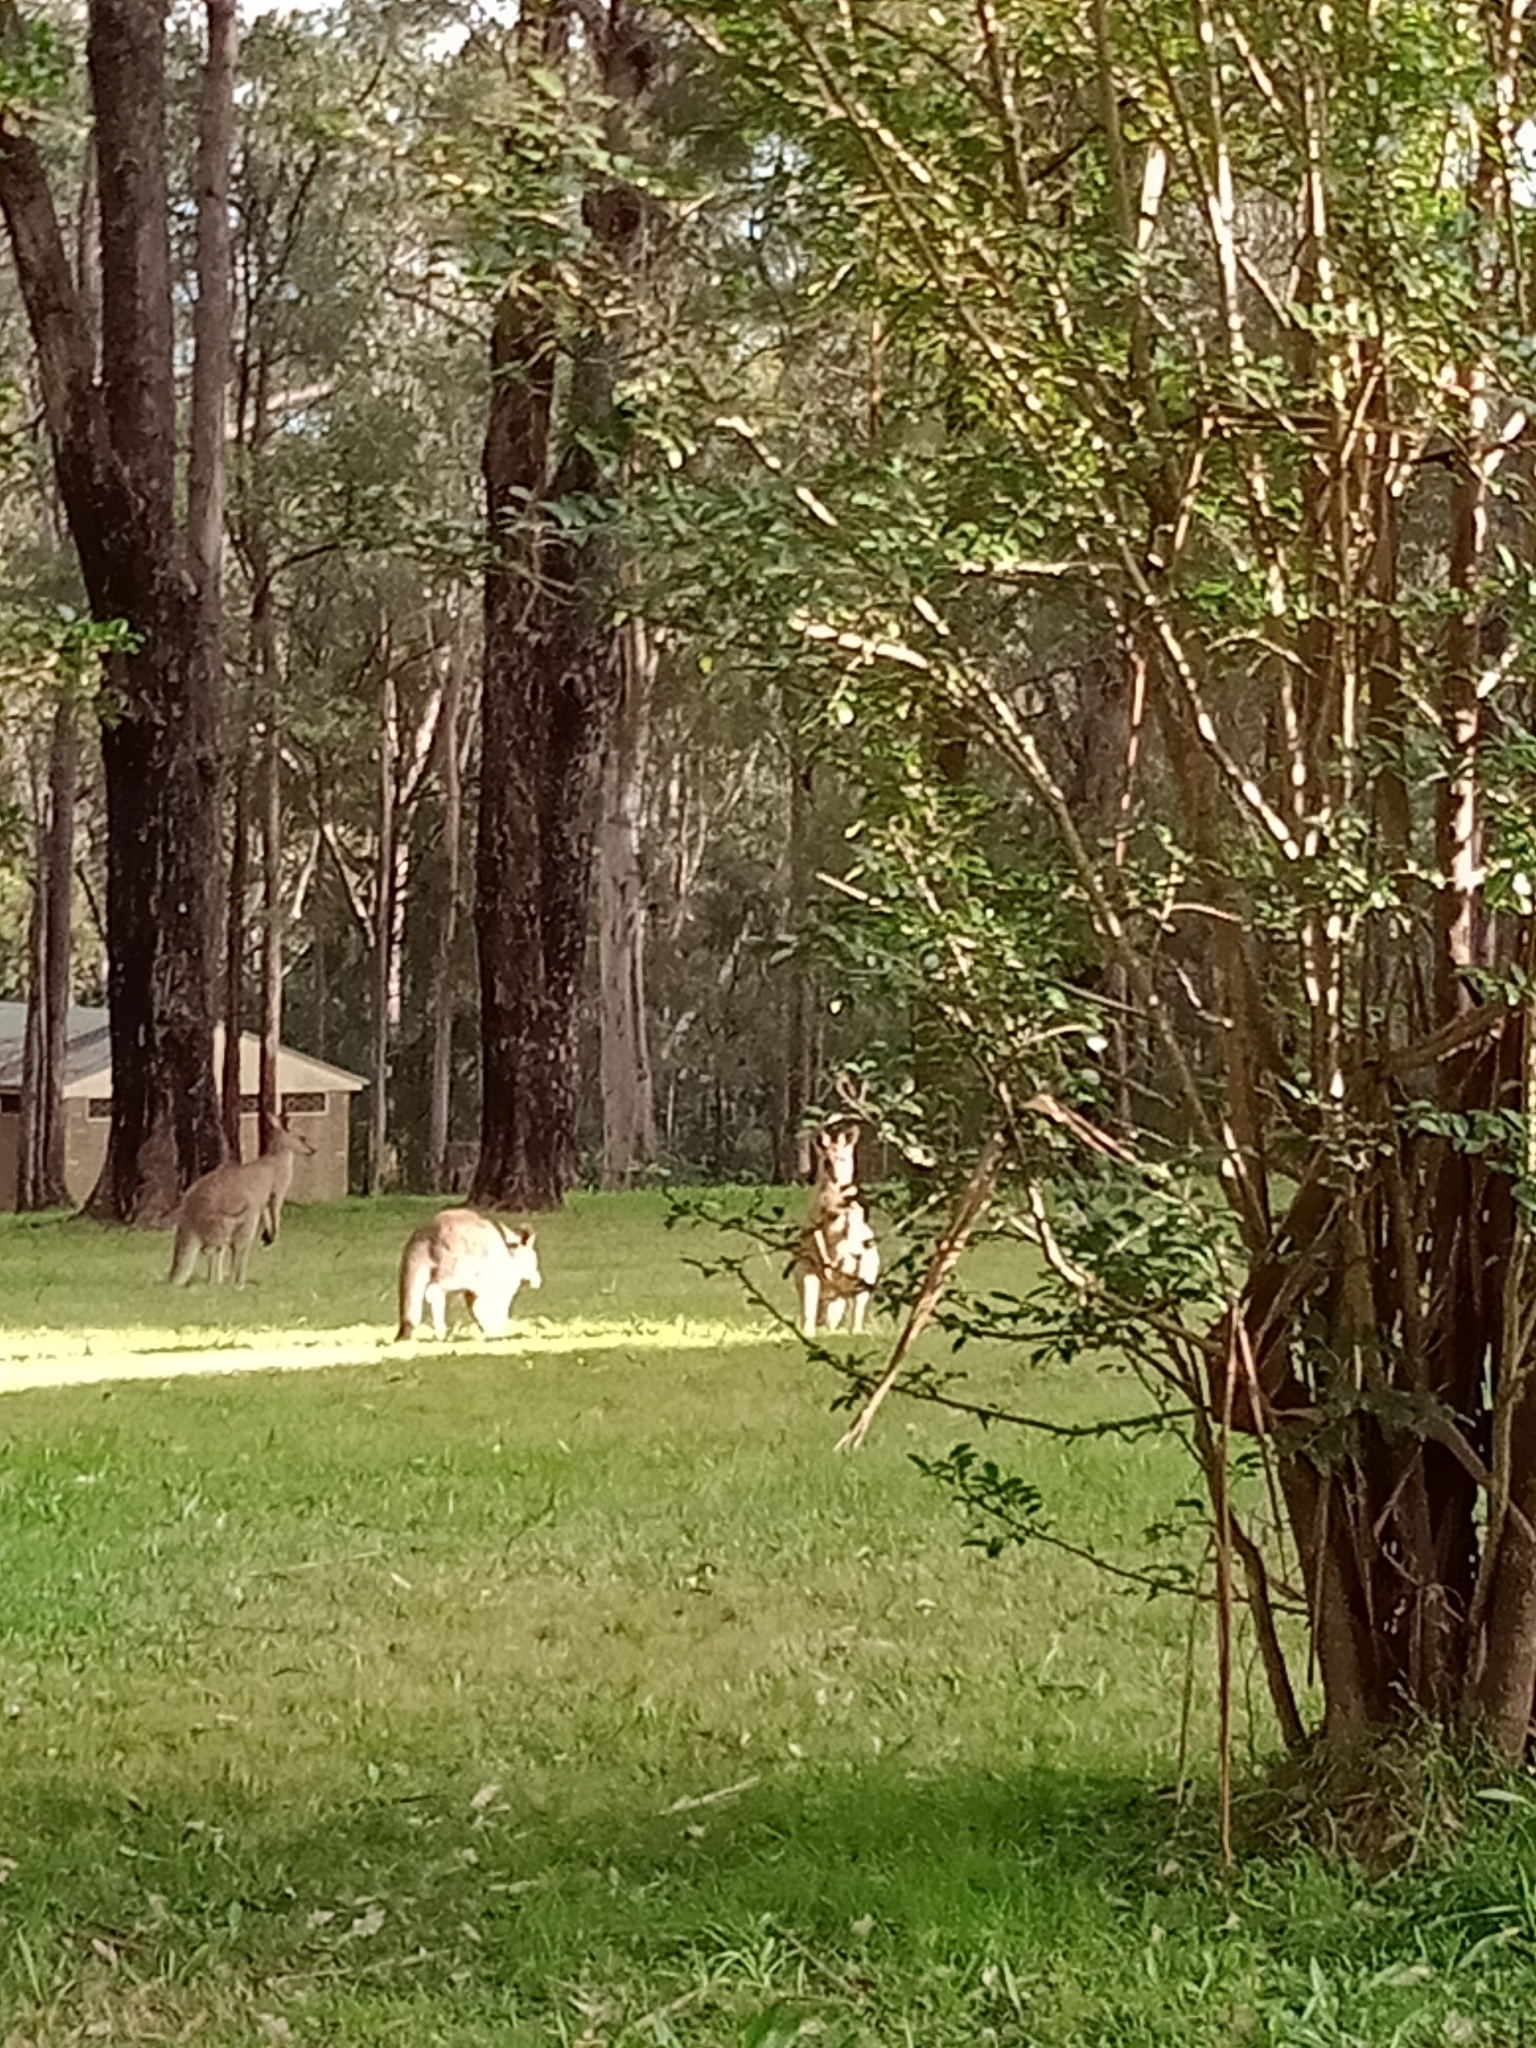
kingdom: Animalia
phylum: Chordata
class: Mammalia
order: Diprotodontia
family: Macropodidae
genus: Macropus
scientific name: Macropus giganteus
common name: Eastern grey kangaroo
